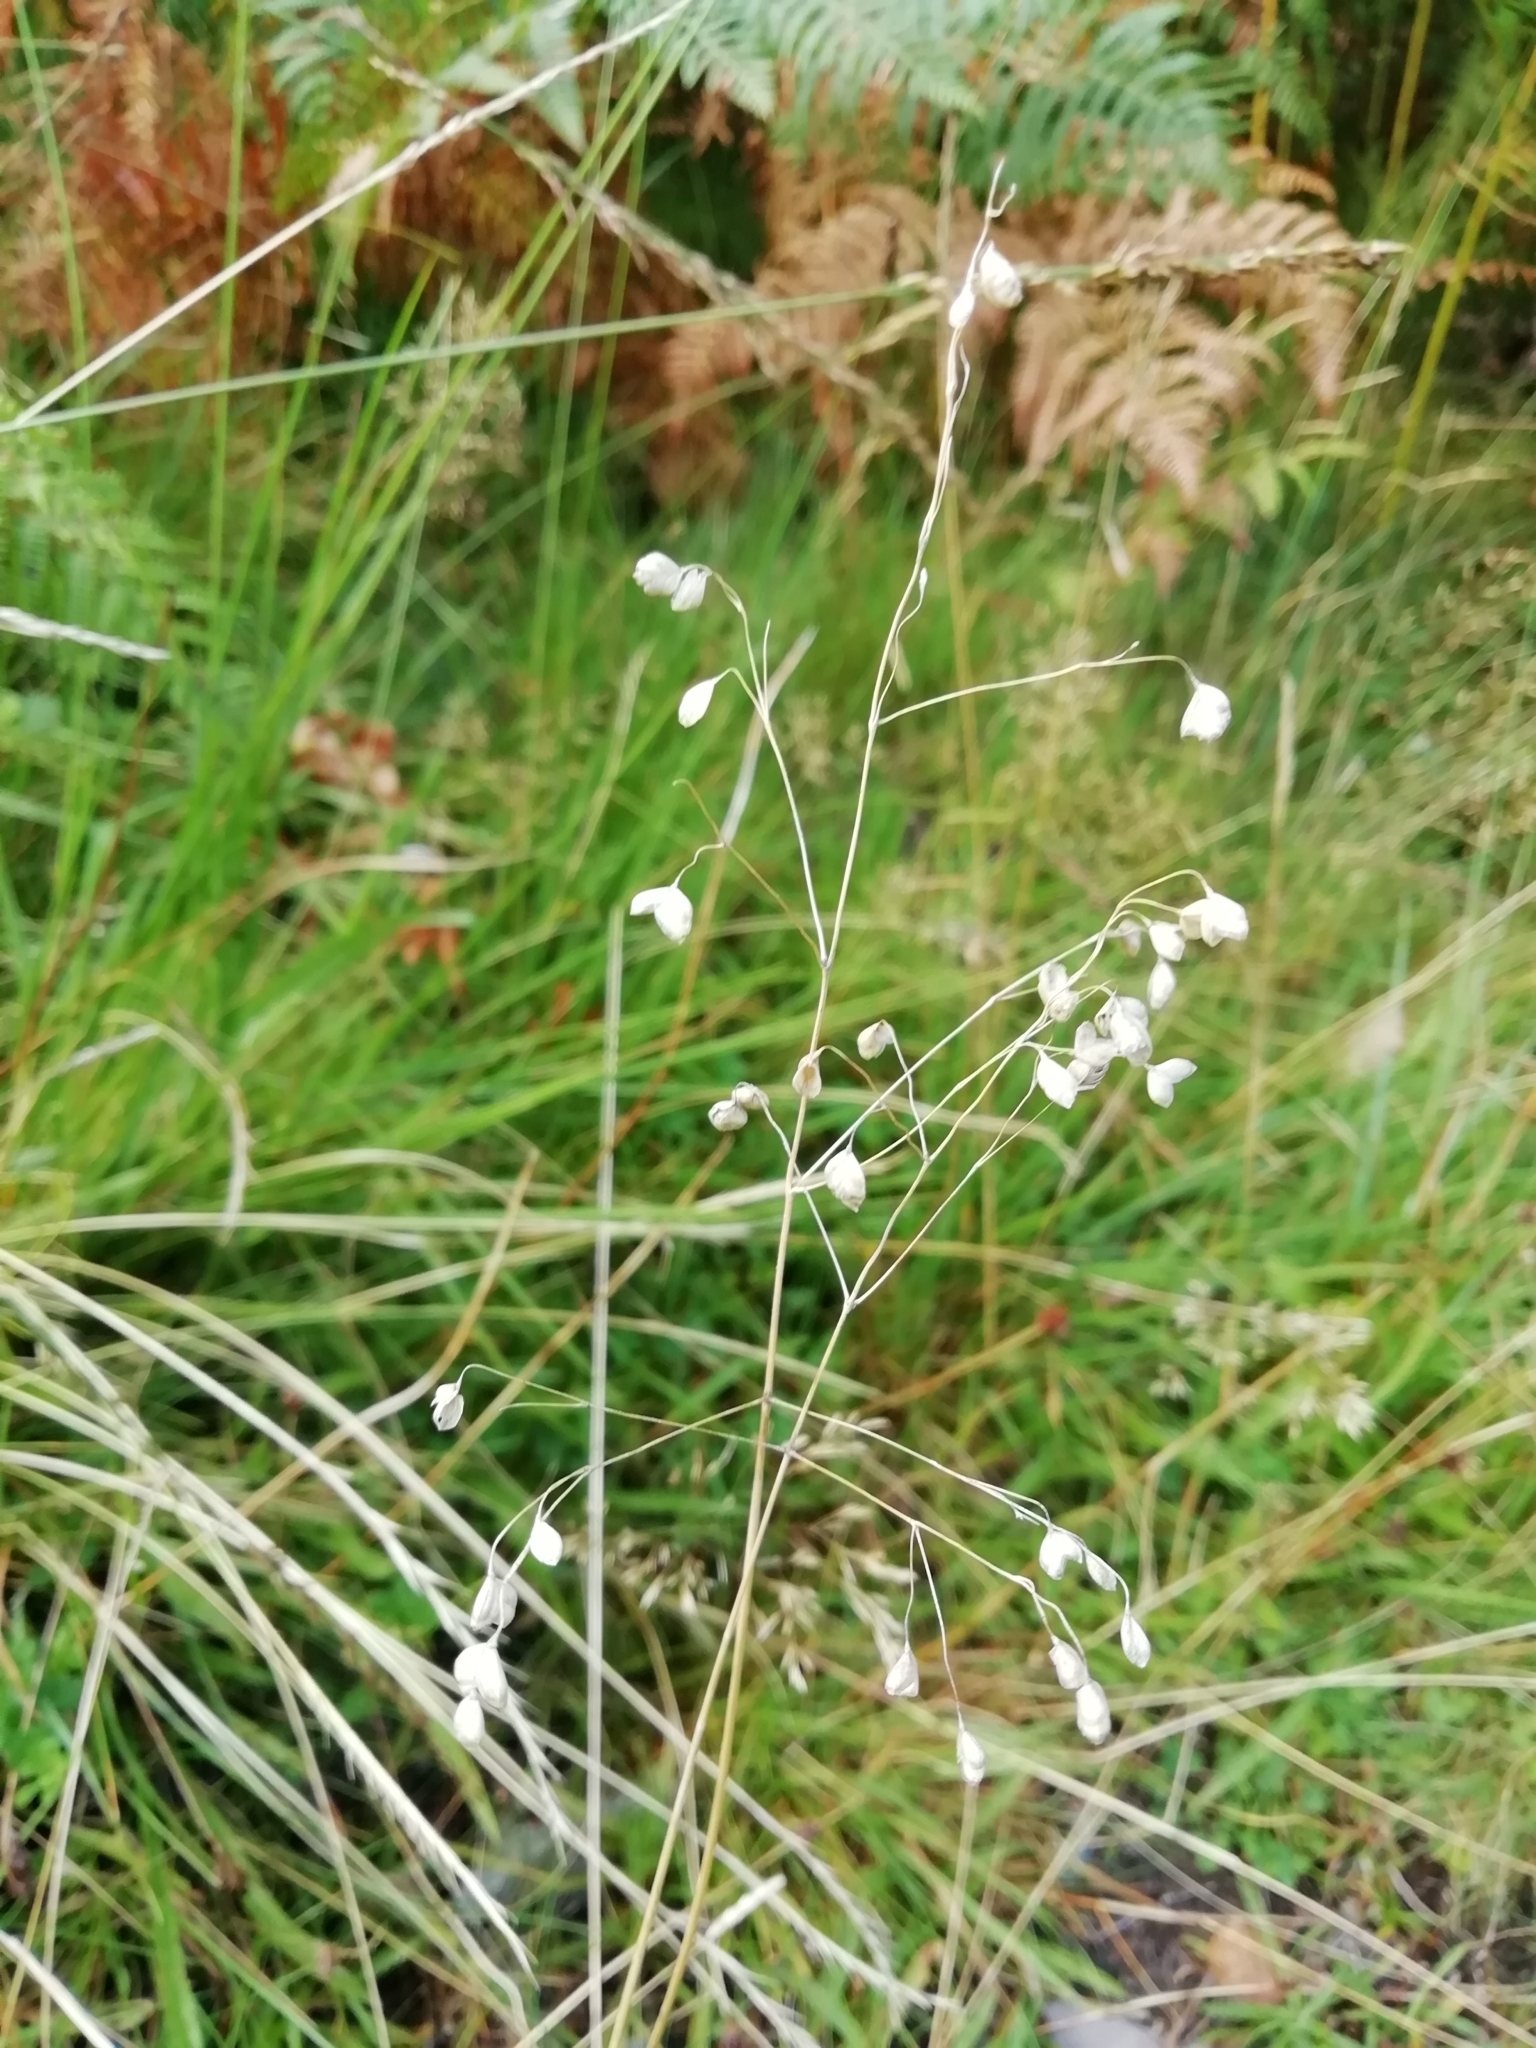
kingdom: Plantae
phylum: Tracheophyta
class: Liliopsida
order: Poales
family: Poaceae
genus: Briza
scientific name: Briza media
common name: Quaking grass
